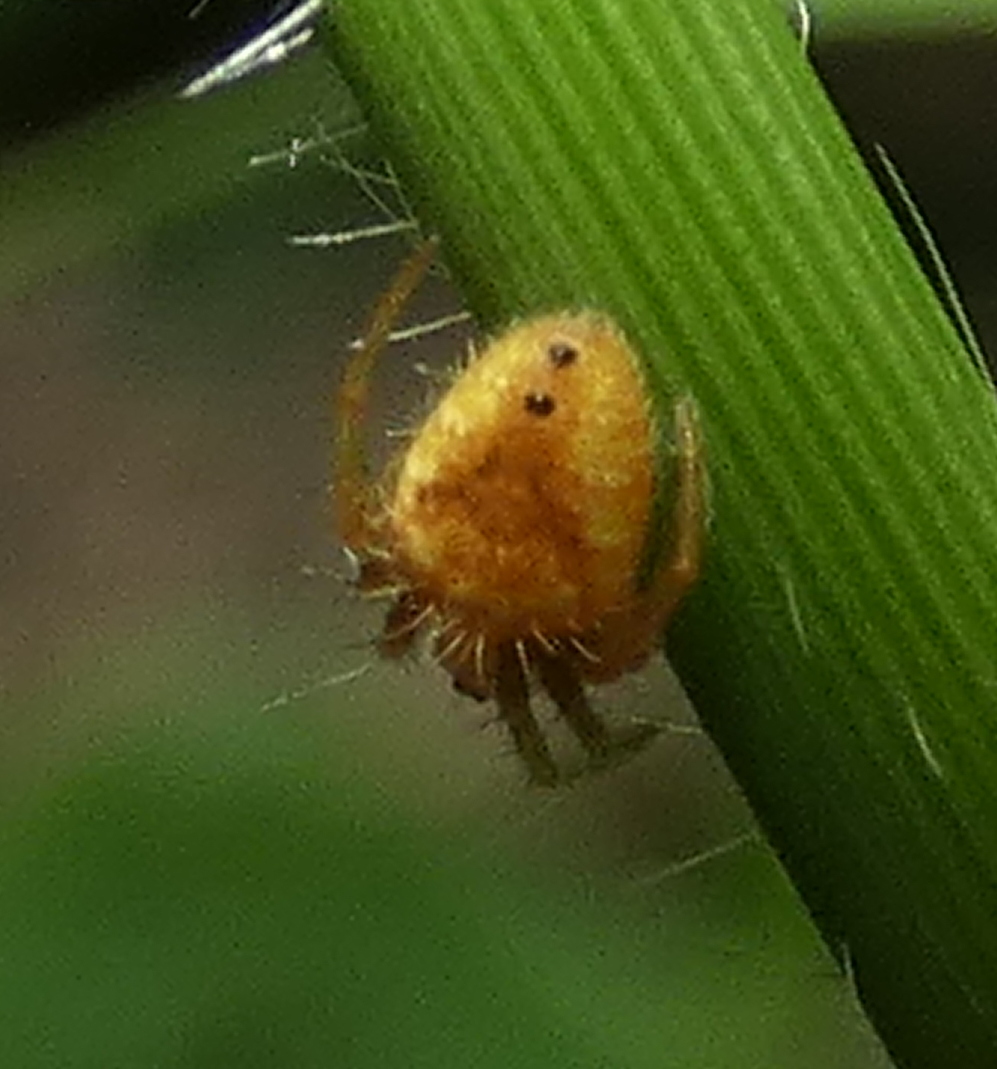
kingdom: Animalia
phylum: Arthropoda
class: Arachnida
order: Araneae
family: Araneidae
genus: Eriophora
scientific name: Eriophora edax
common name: Orb weavers
